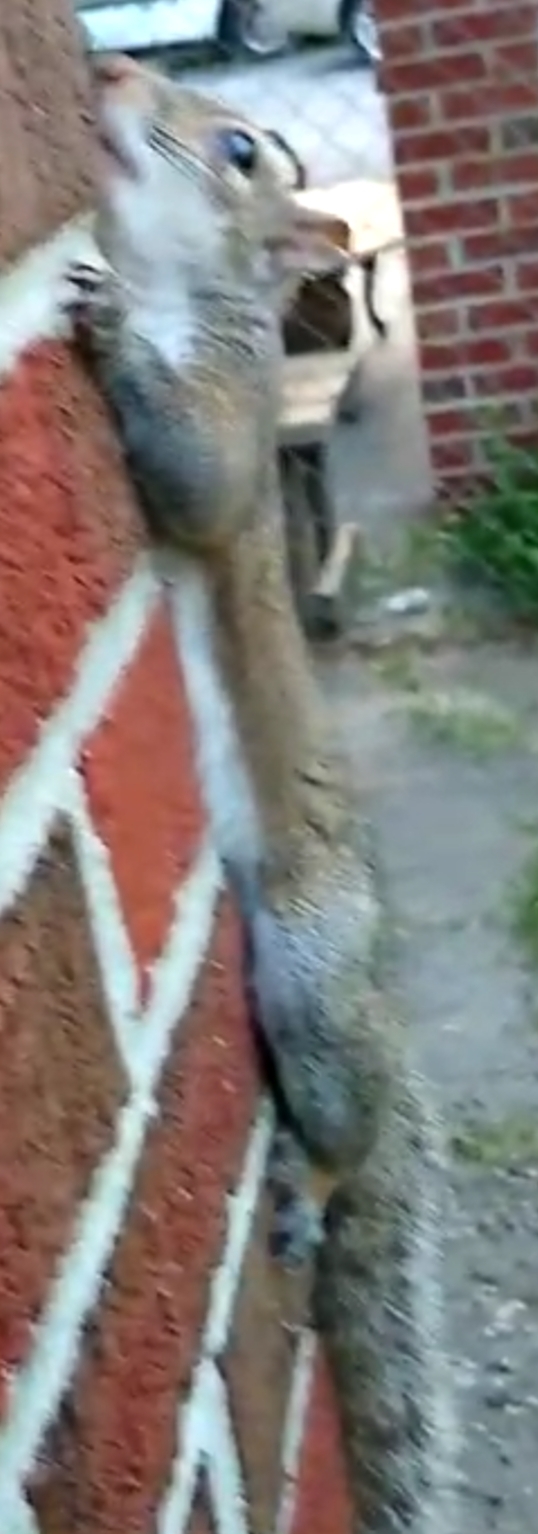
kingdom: Animalia
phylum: Chordata
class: Mammalia
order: Rodentia
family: Sciuridae
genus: Sciurus
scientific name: Sciurus carolinensis
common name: Eastern gray squirrel
